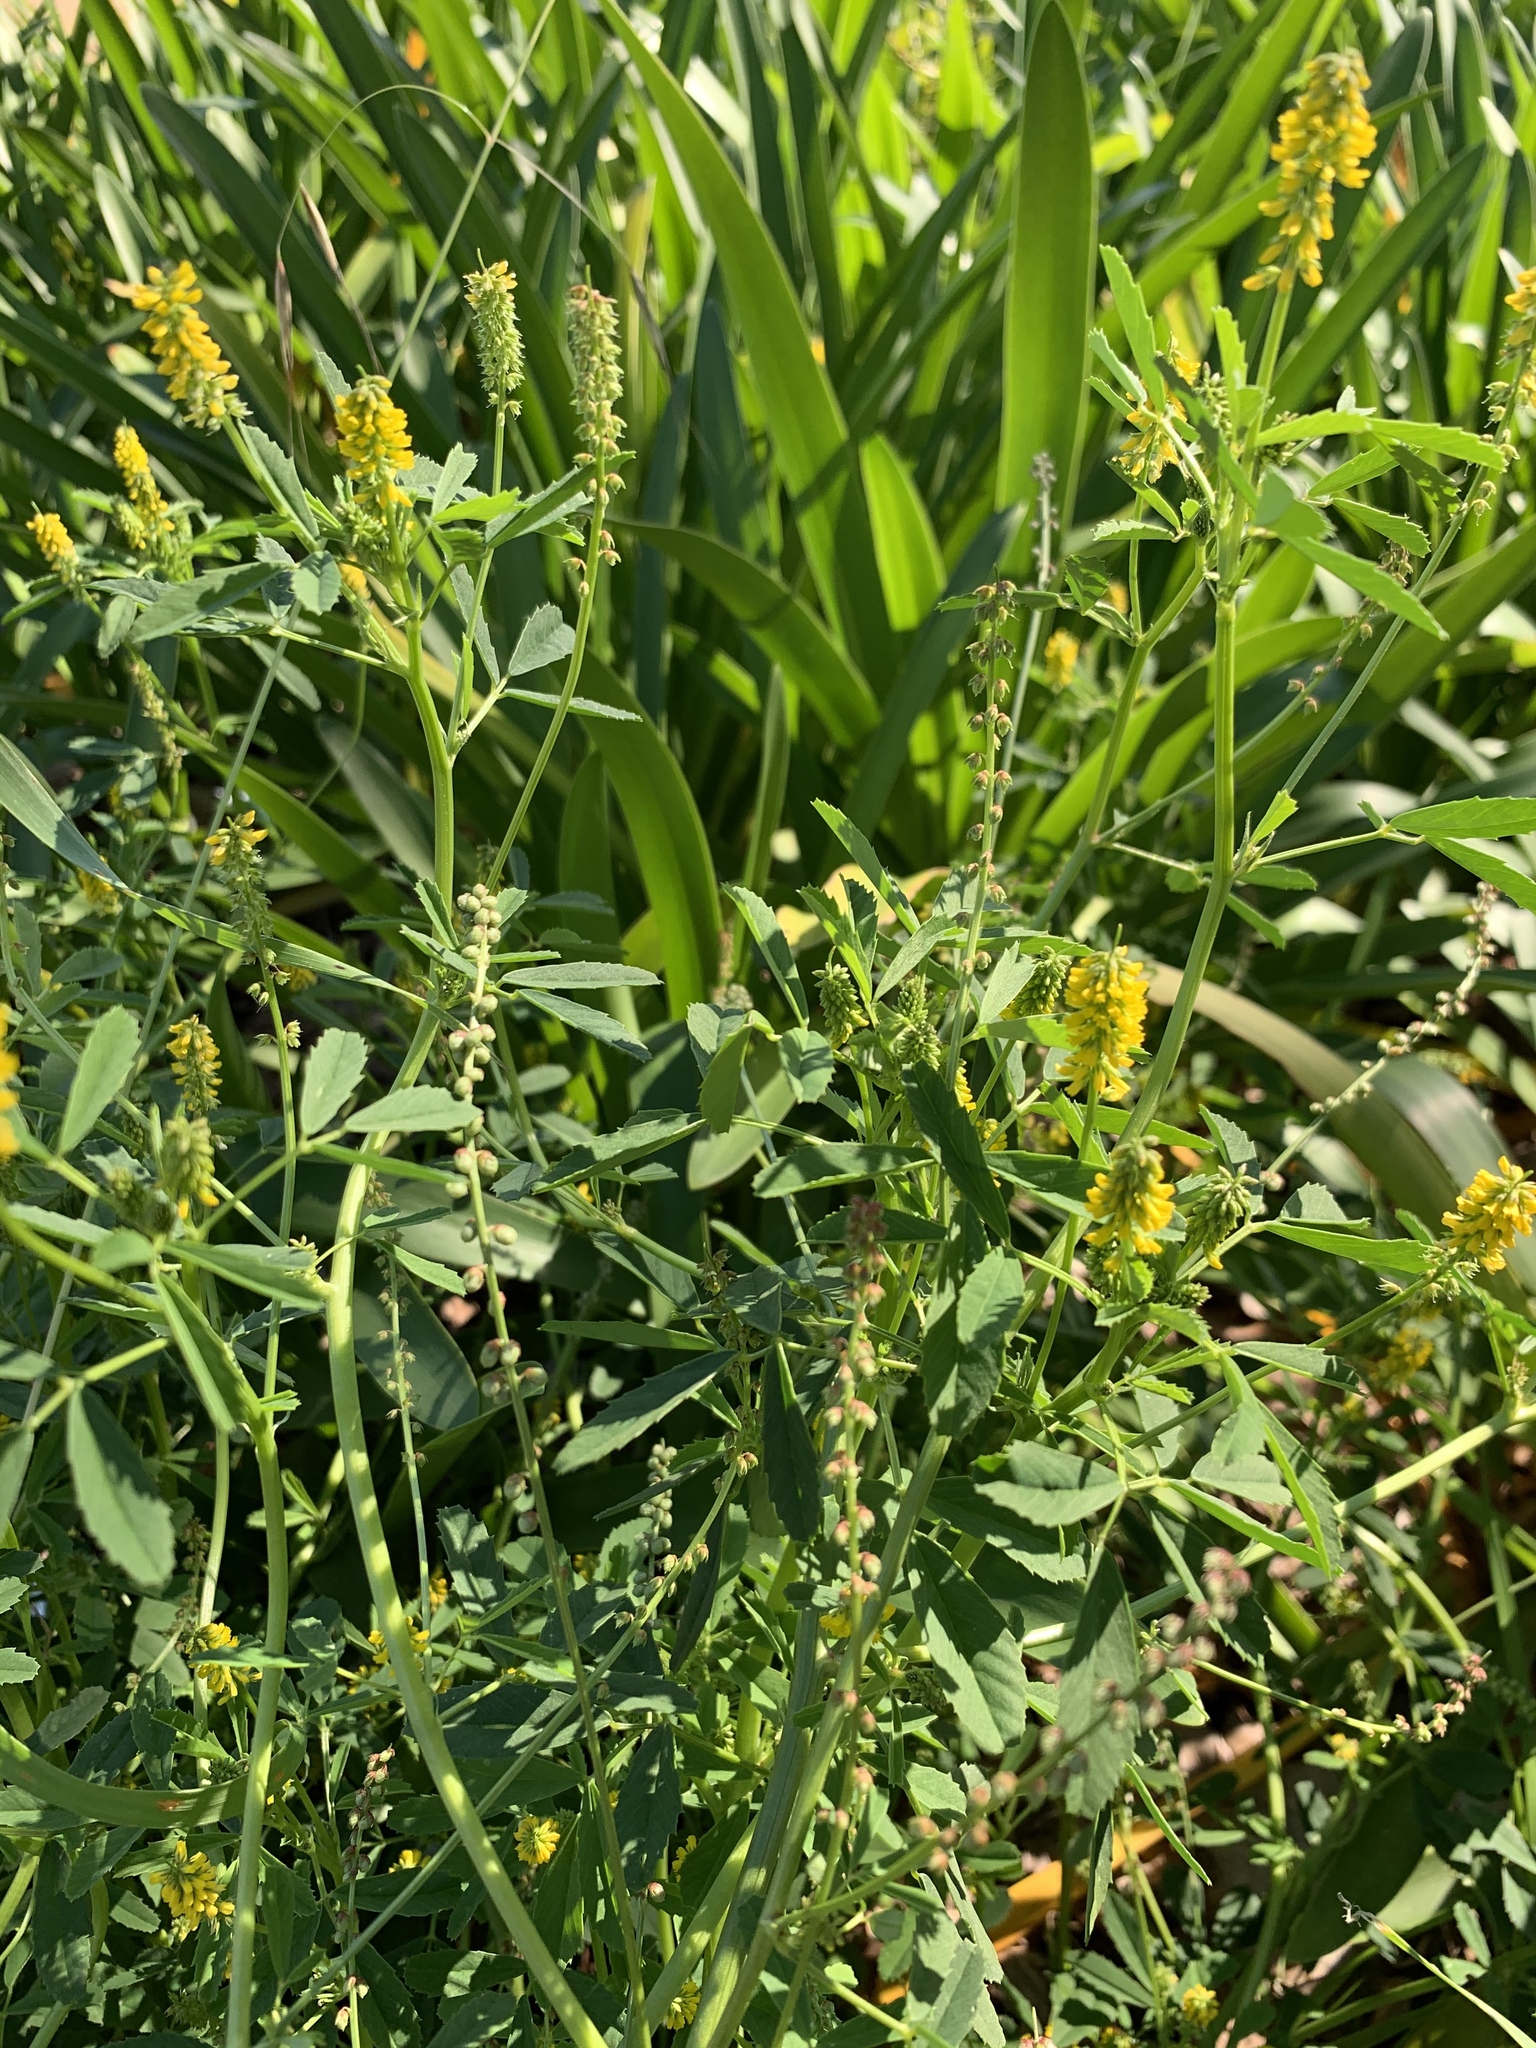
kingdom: Plantae
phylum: Tracheophyta
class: Magnoliopsida
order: Fabales
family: Fabaceae
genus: Melilotus
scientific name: Melilotus indicus
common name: Small melilot
